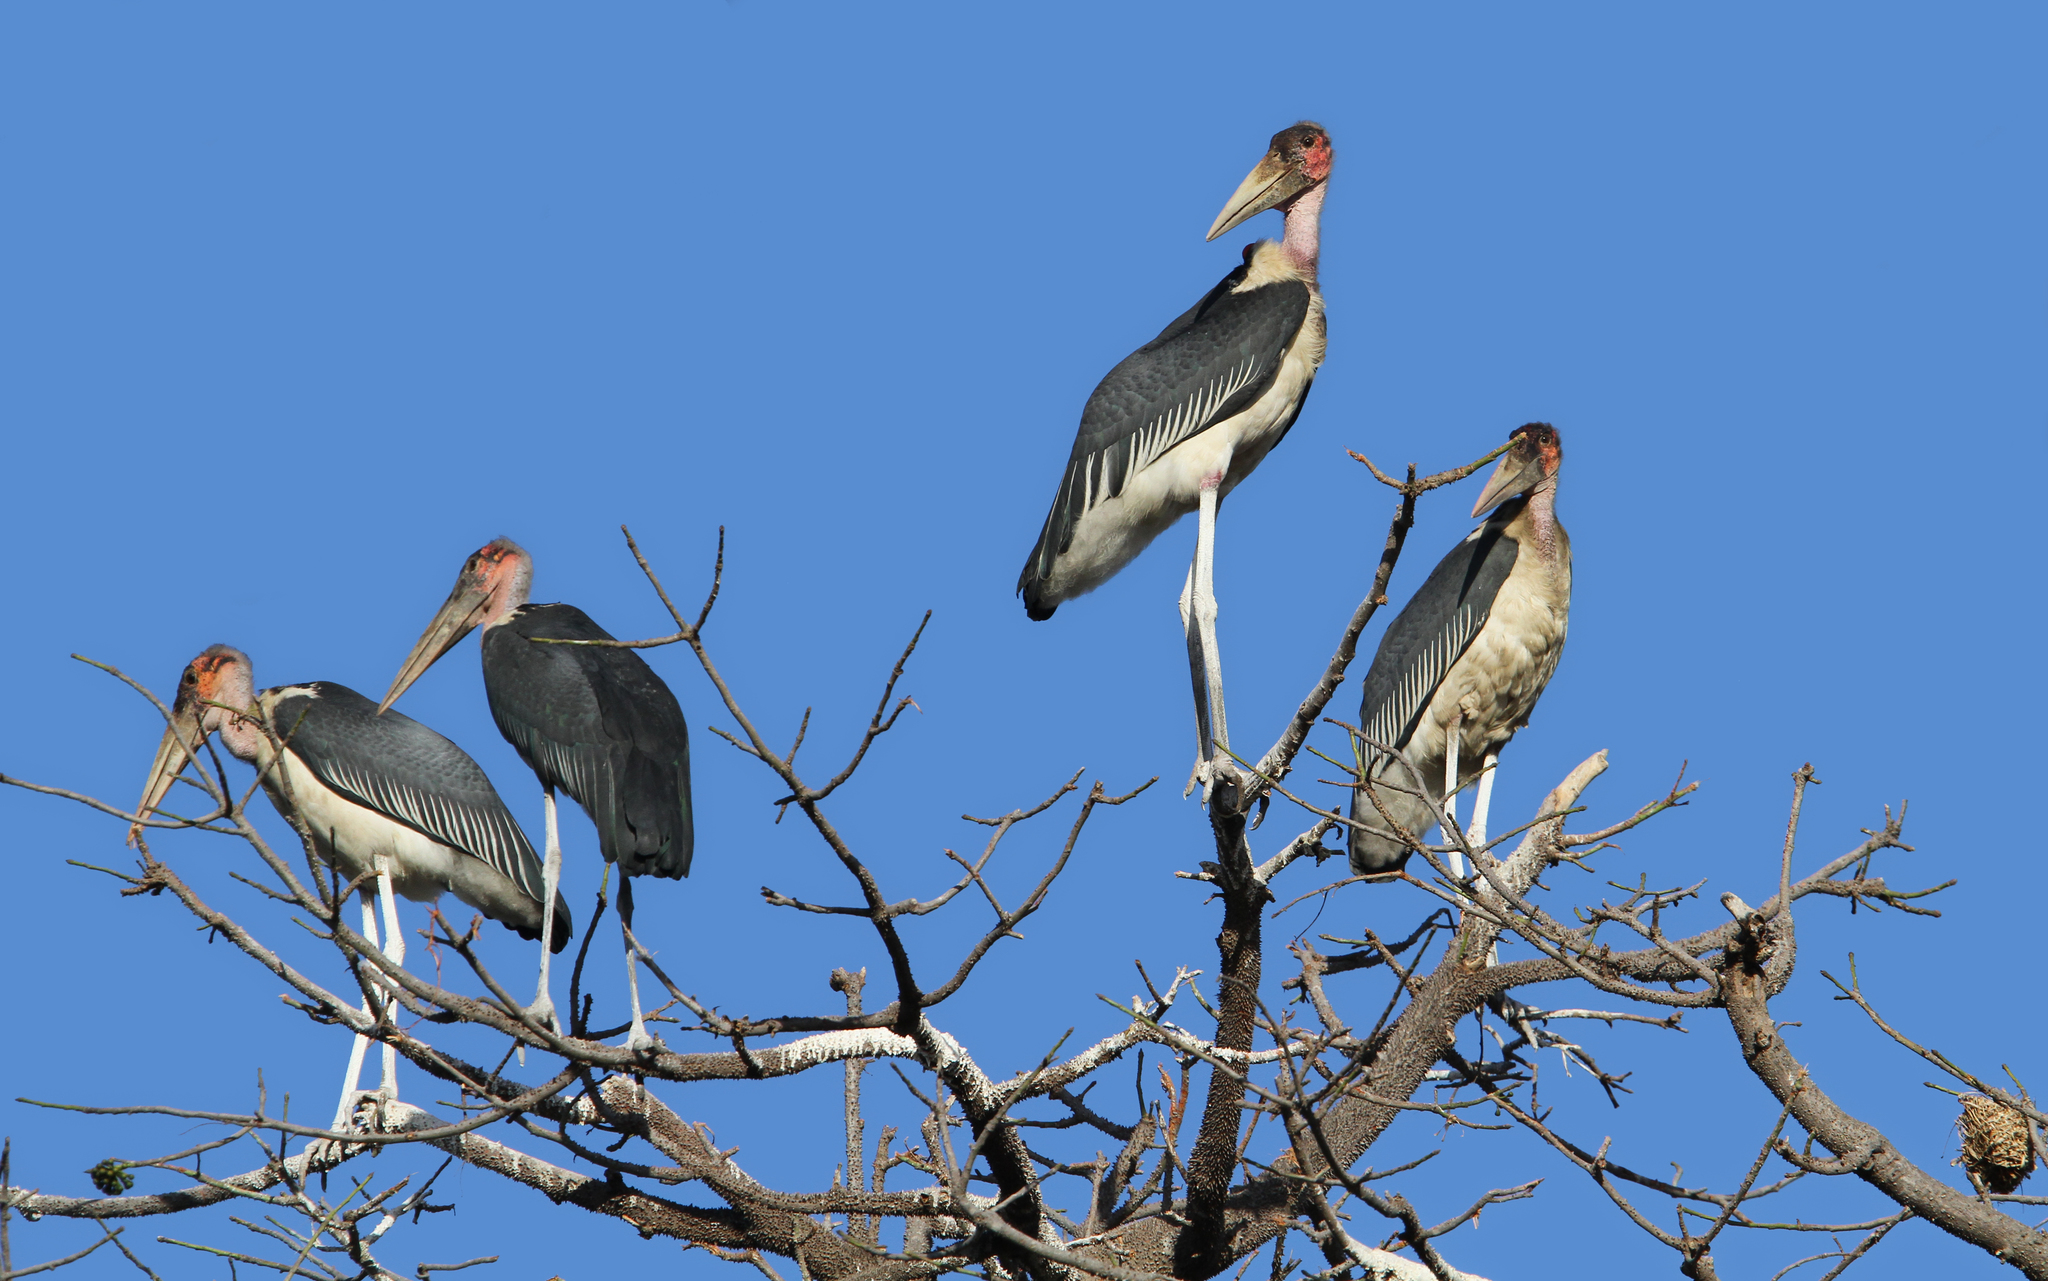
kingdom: Animalia
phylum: Chordata
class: Aves
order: Ciconiiformes
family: Ciconiidae
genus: Leptoptilos
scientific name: Leptoptilos crumenifer
